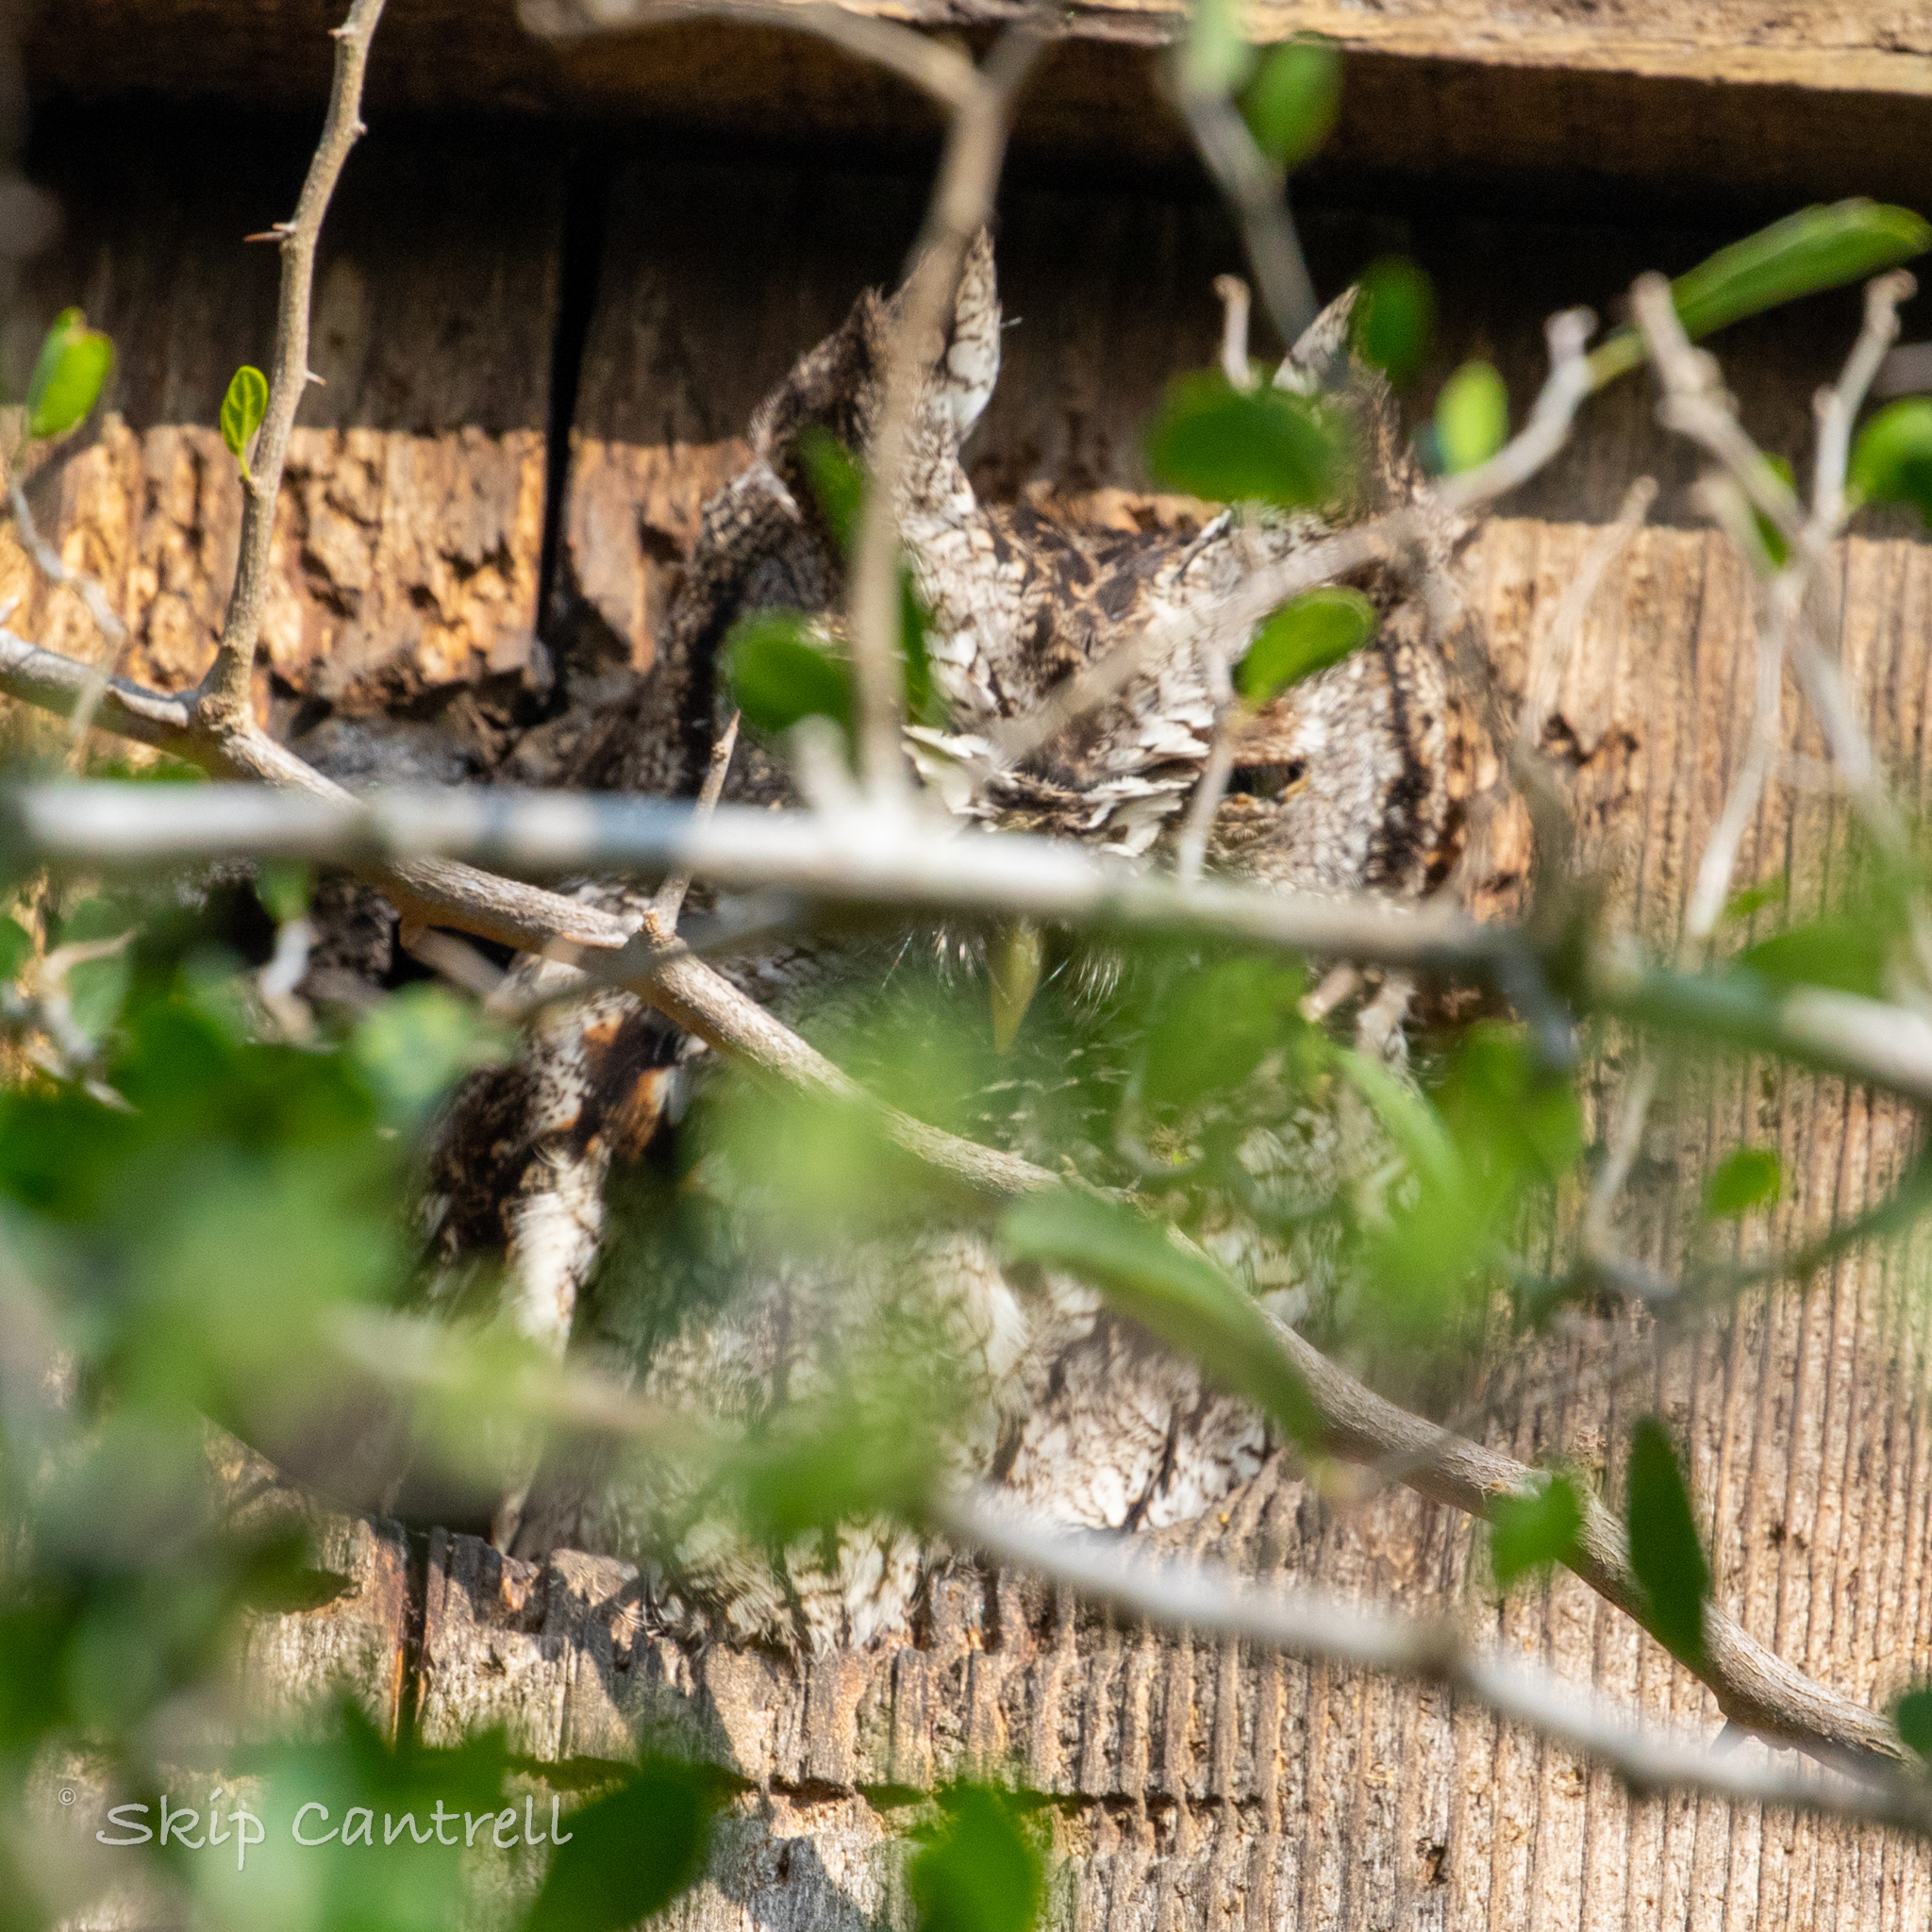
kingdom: Animalia
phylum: Chordata
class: Aves
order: Strigiformes
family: Strigidae
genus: Megascops
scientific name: Megascops asio
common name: Eastern screech-owl
